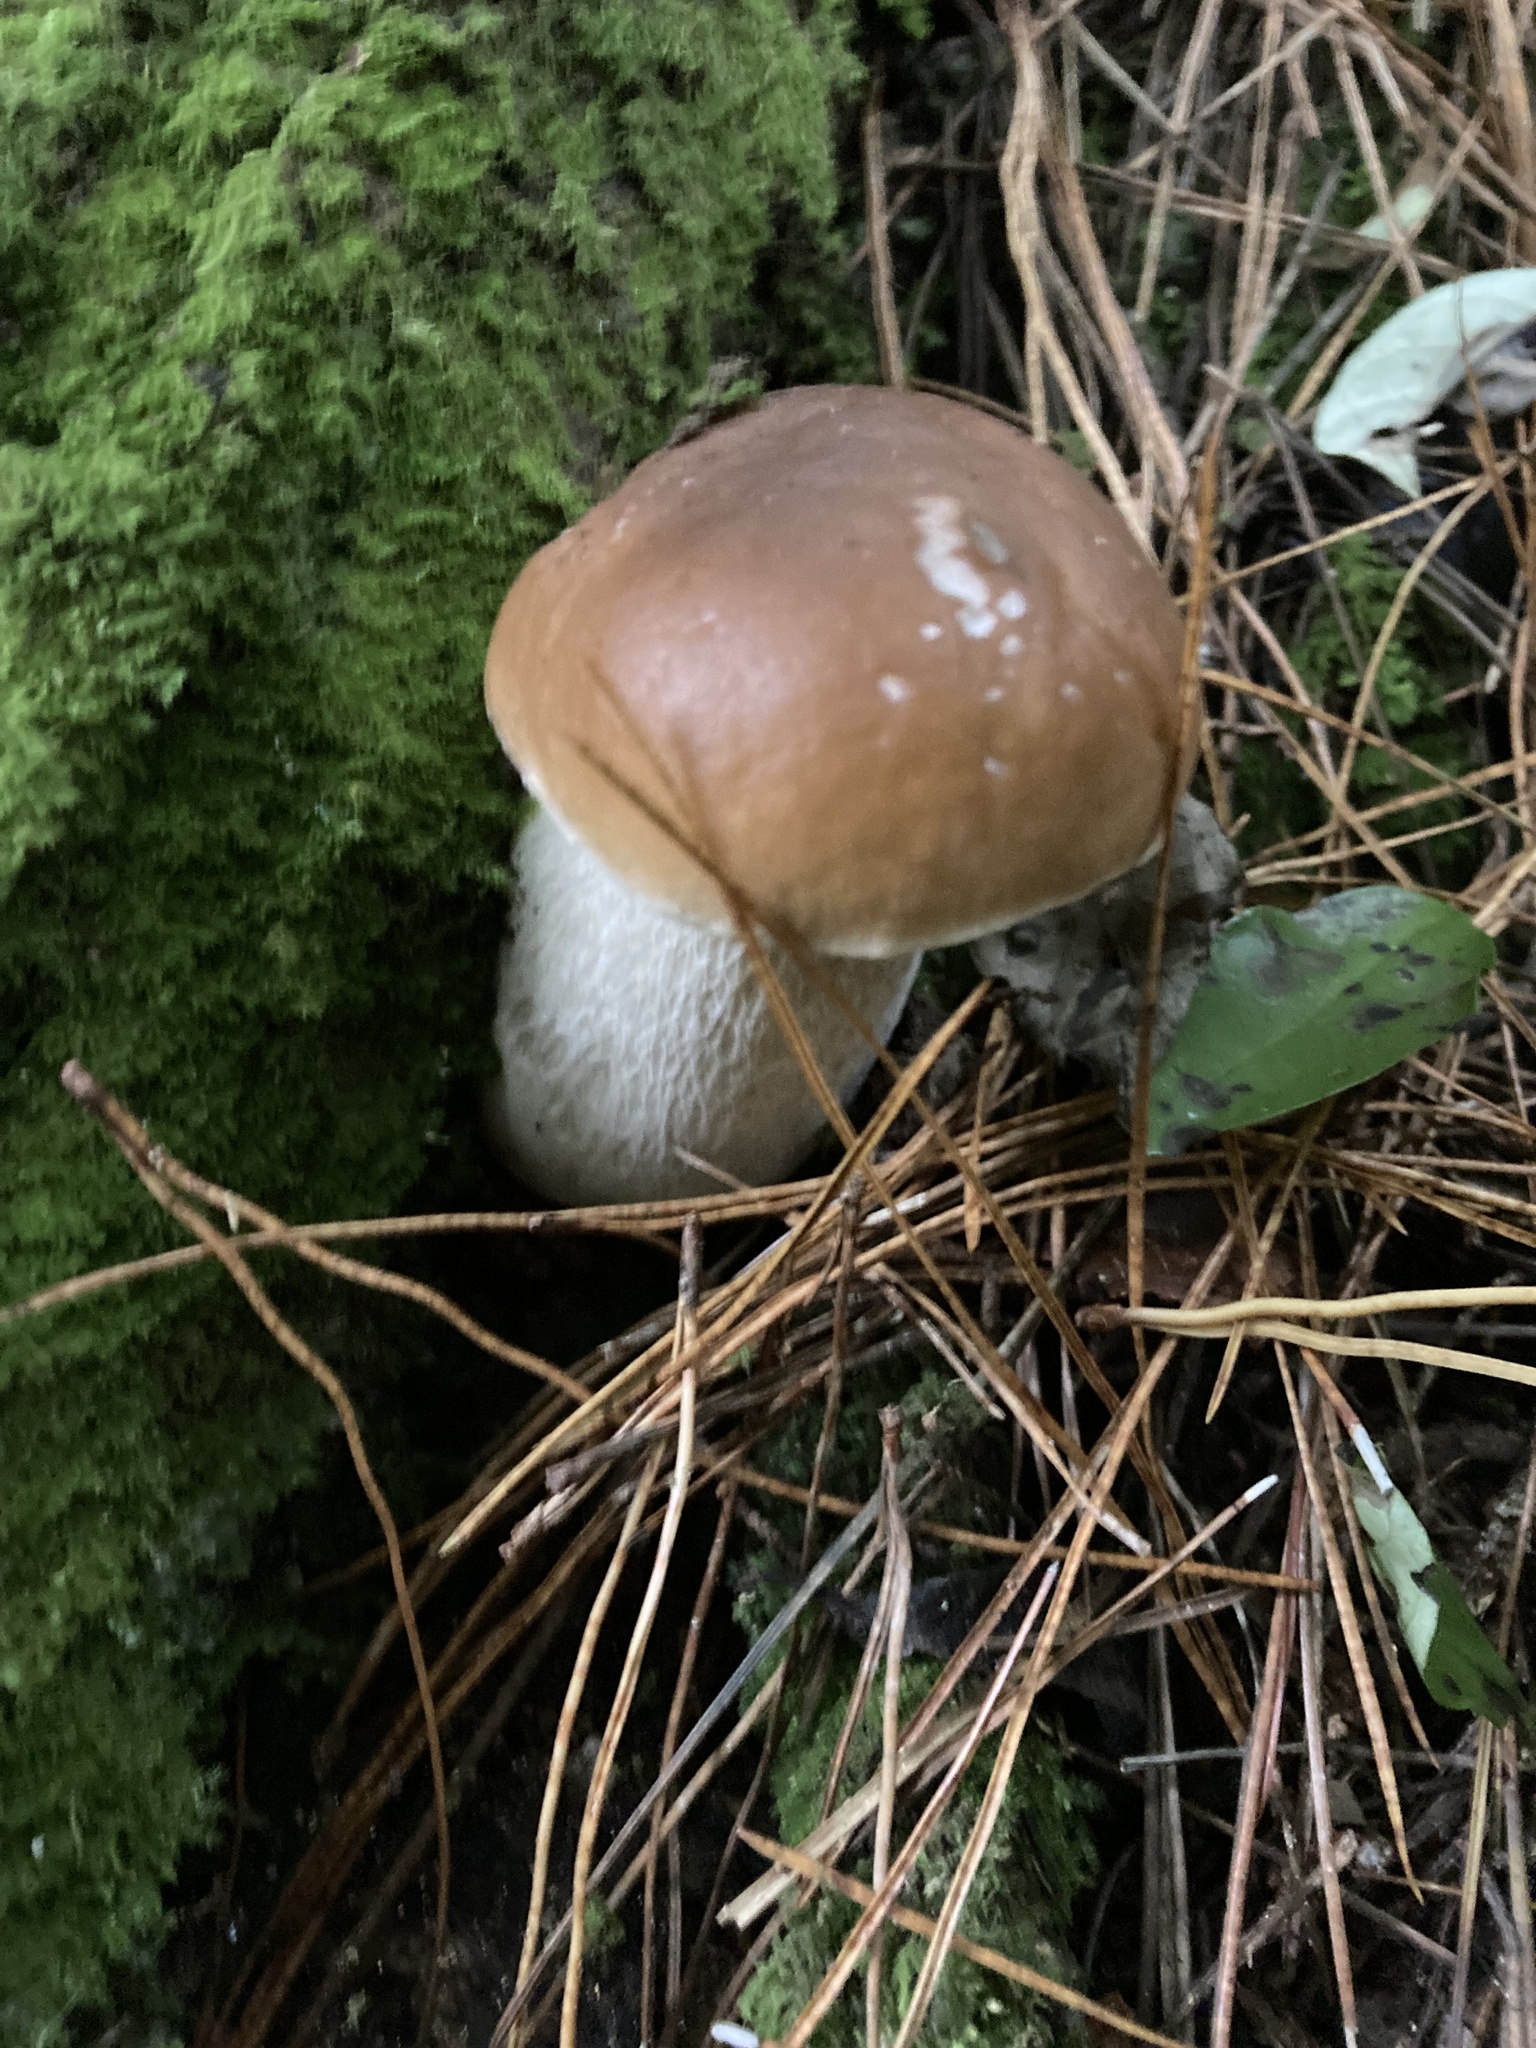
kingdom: Fungi
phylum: Basidiomycota
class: Agaricomycetes
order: Boletales
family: Boletaceae
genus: Boletus
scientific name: Boletus edulis
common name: Cep
